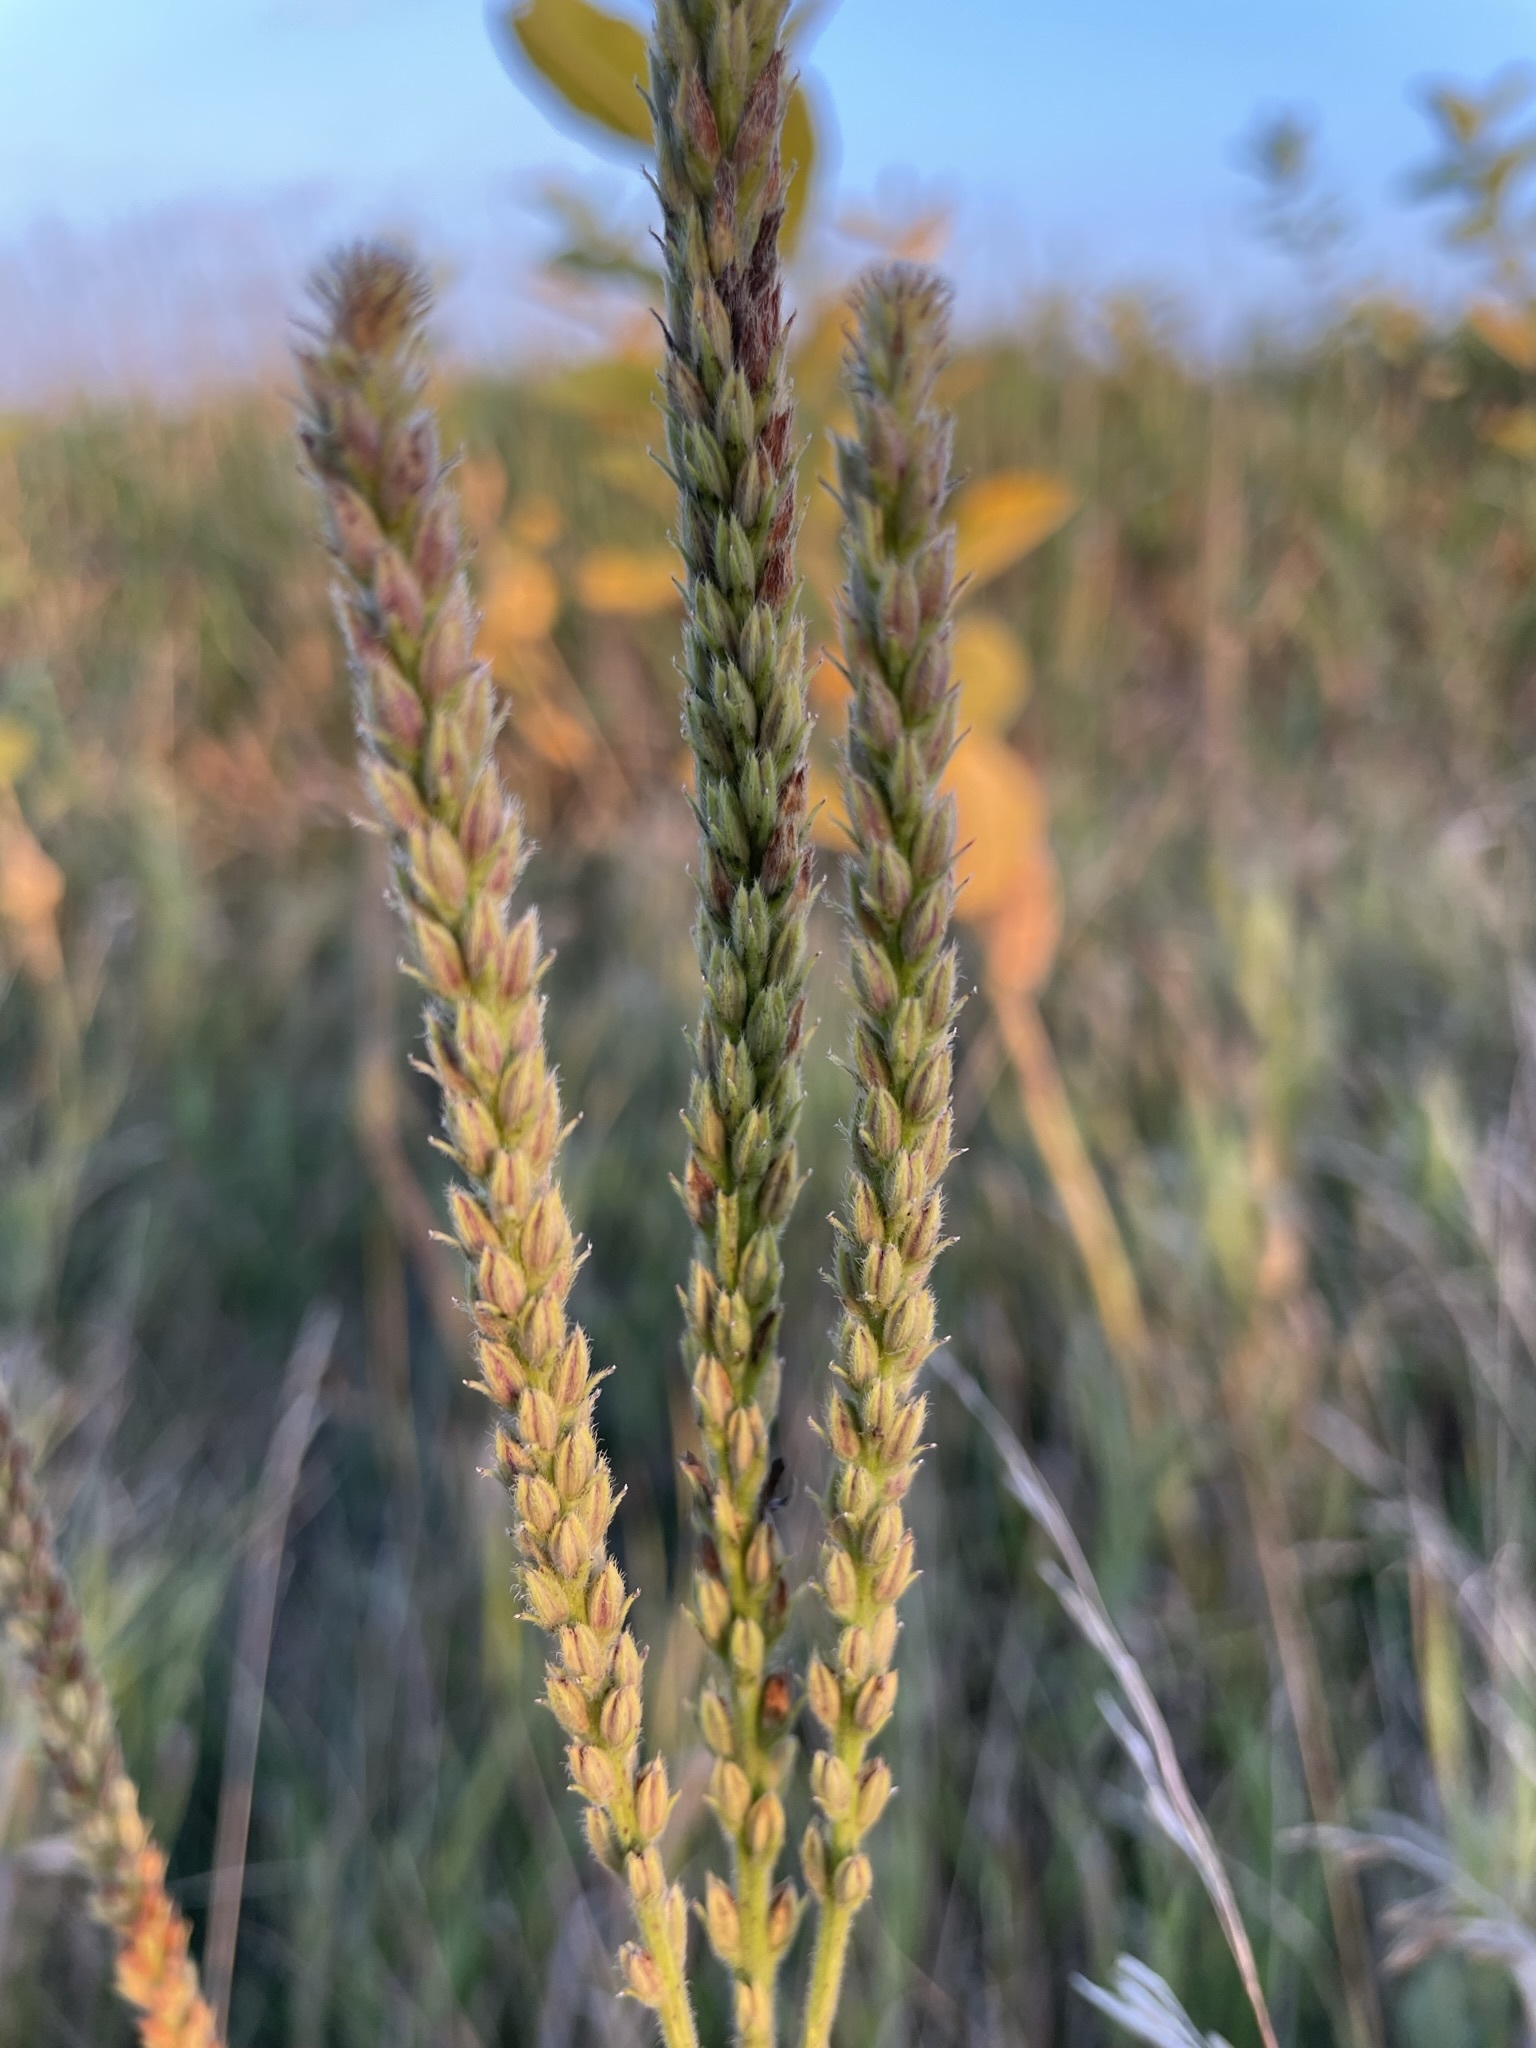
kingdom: Plantae
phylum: Tracheophyta
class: Magnoliopsida
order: Lamiales
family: Verbenaceae
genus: Verbena
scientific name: Verbena stricta
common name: Hoary vervain
